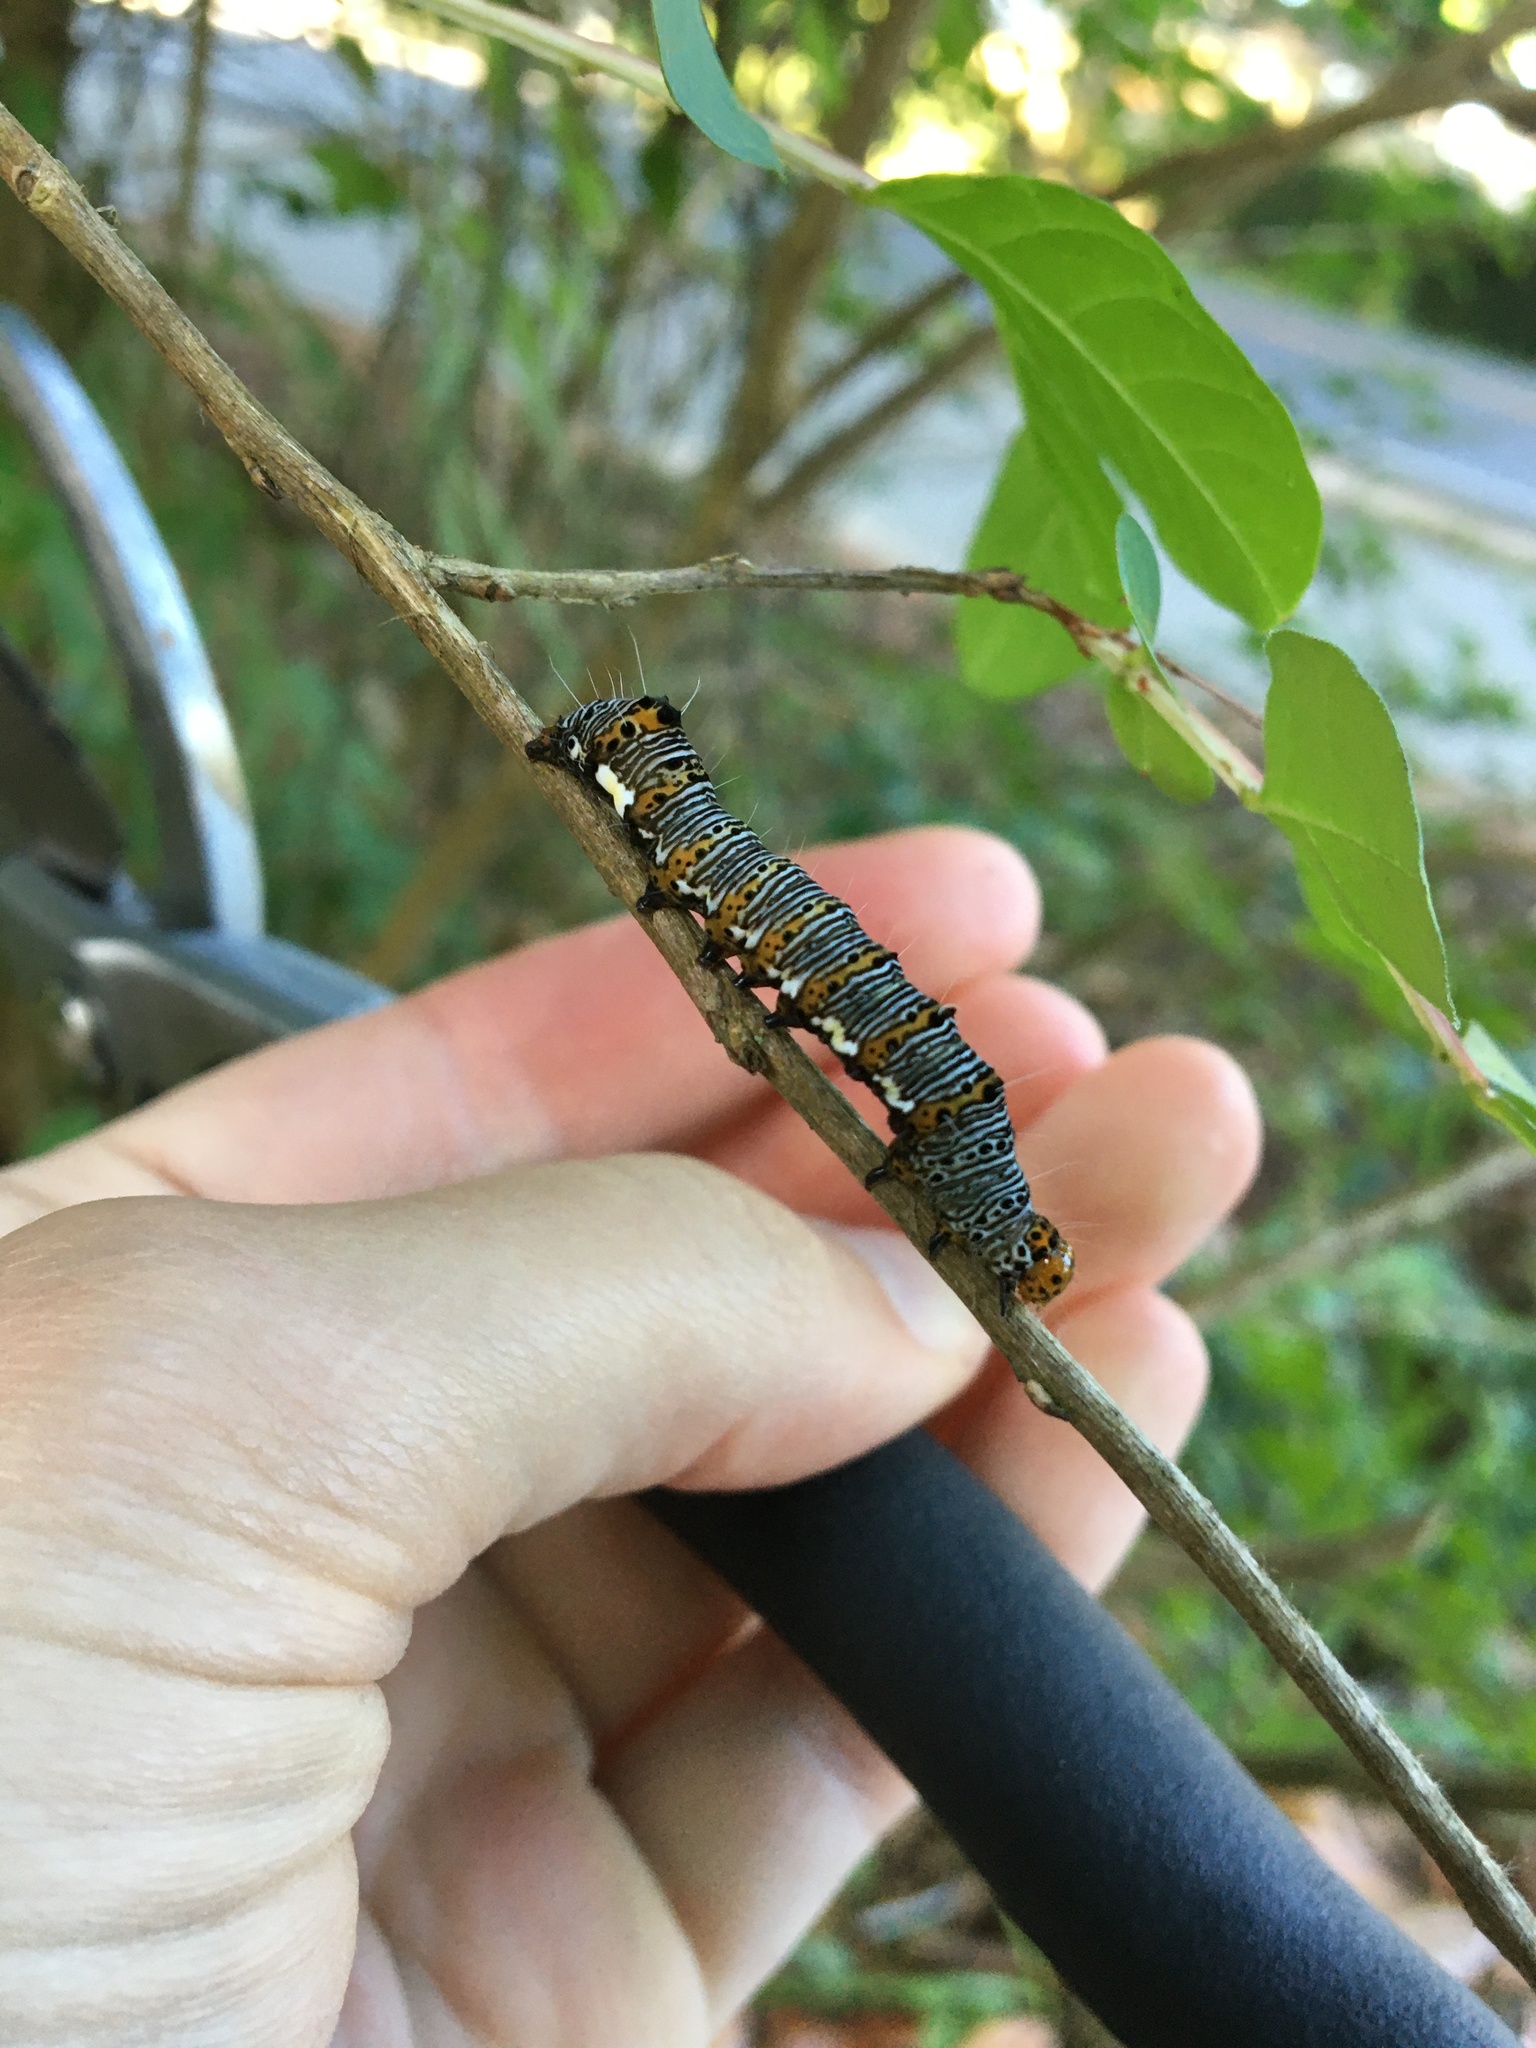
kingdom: Animalia
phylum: Arthropoda
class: Insecta
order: Lepidoptera
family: Noctuidae
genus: Alypia
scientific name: Alypia octomaculata
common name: Eight-spotted forester
